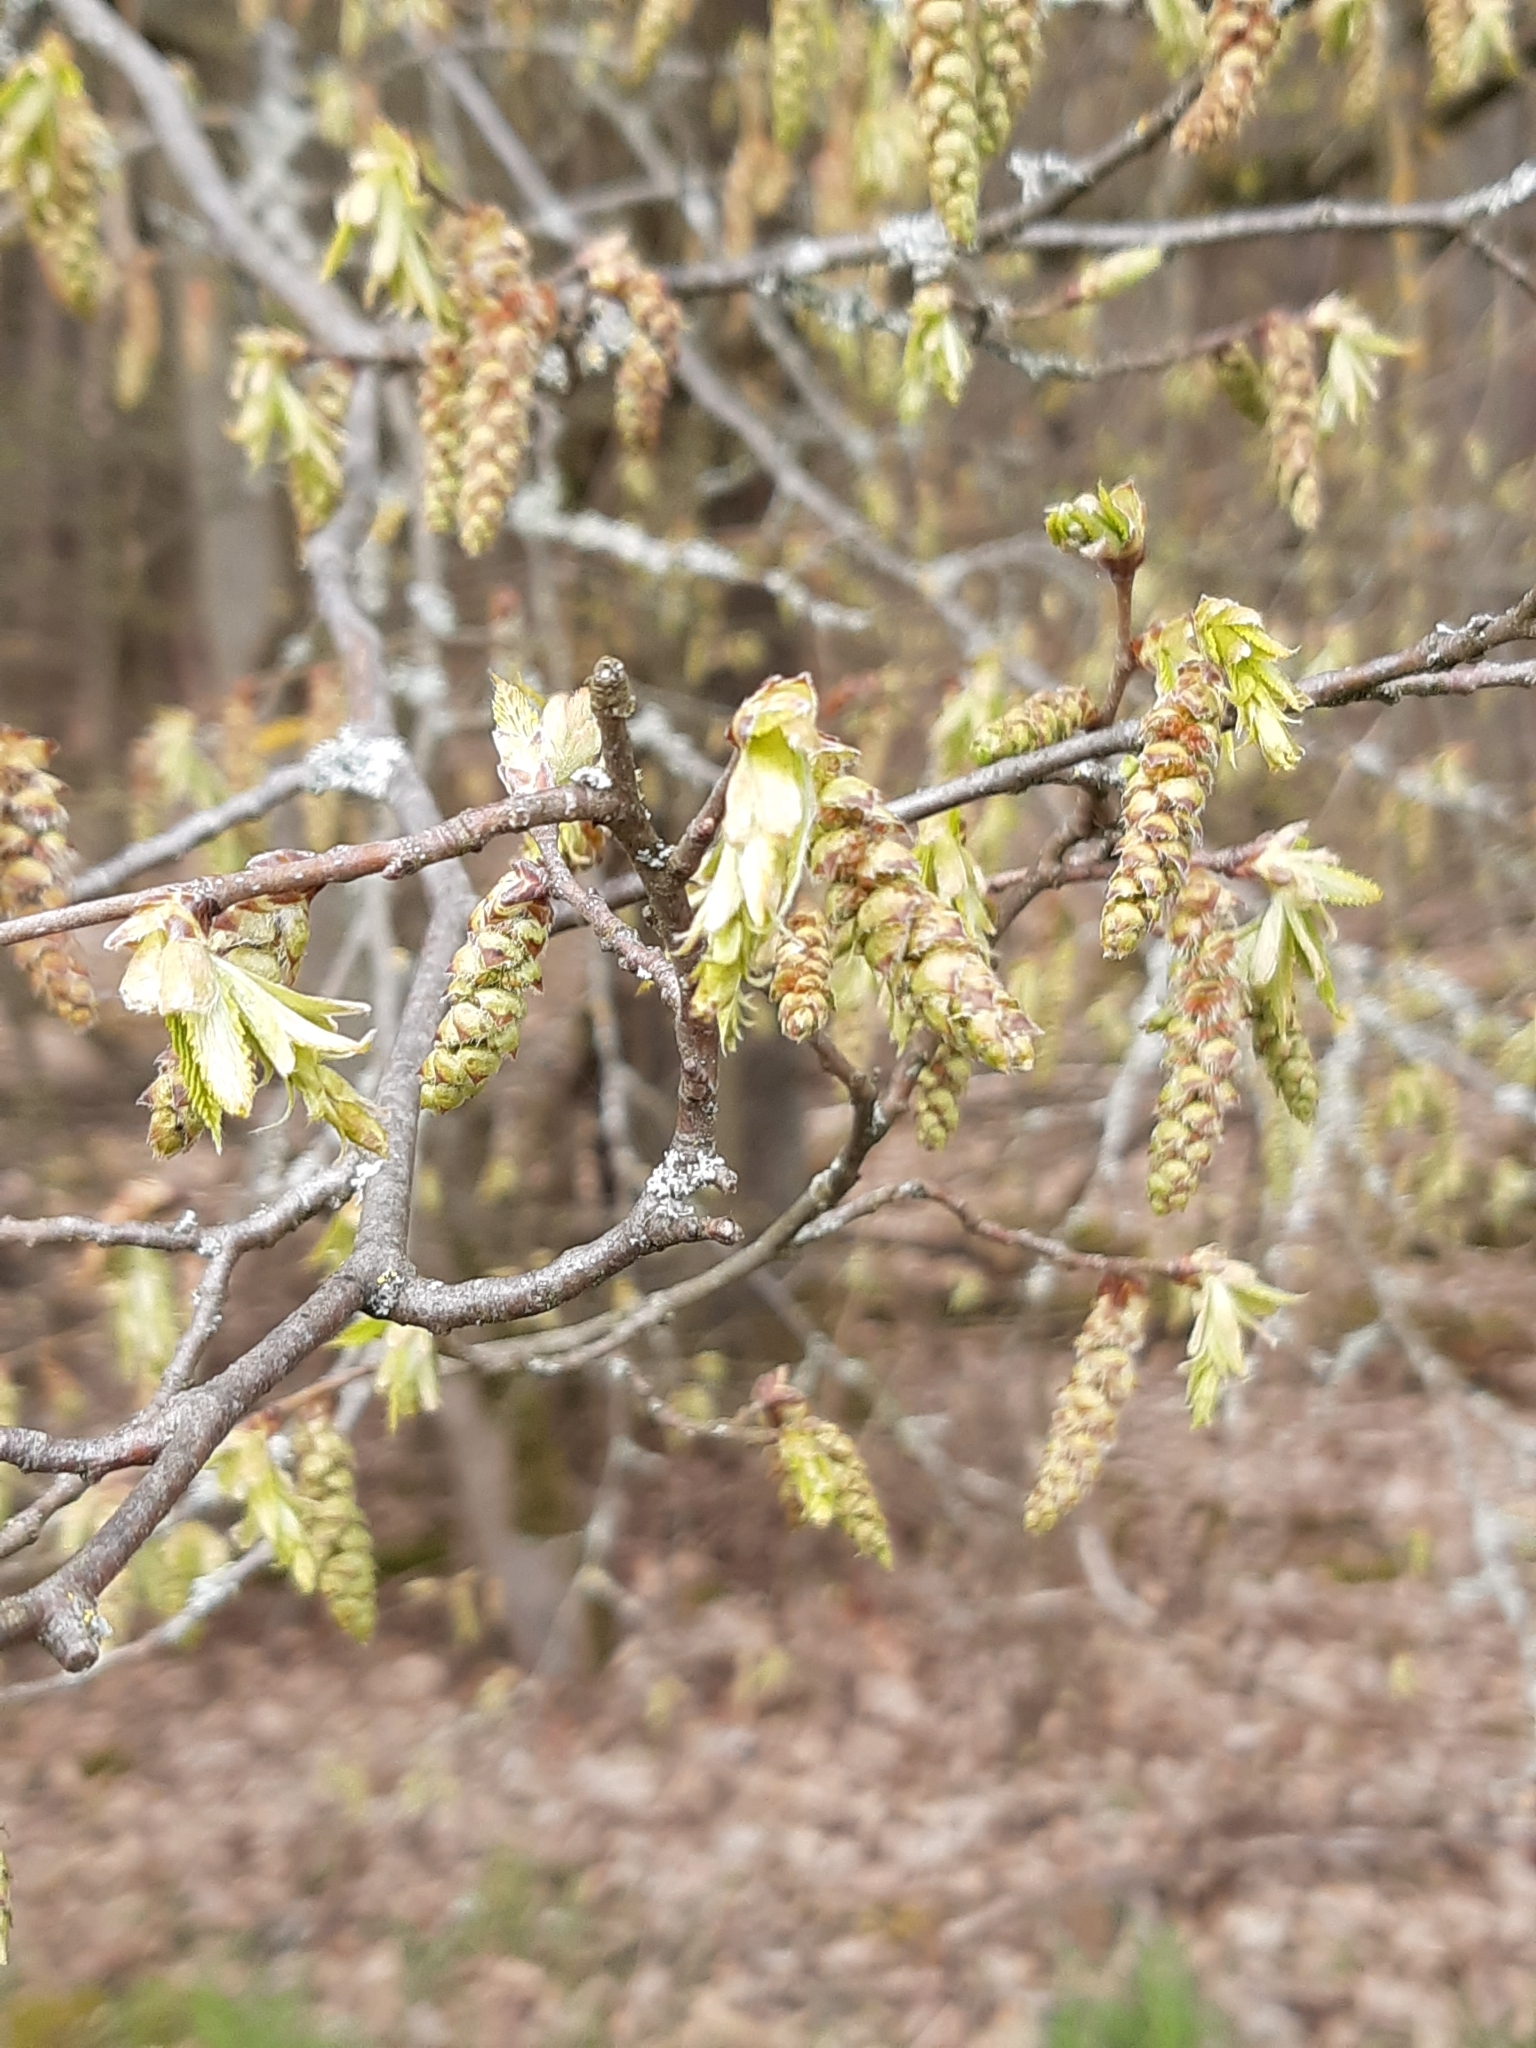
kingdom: Plantae
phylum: Tracheophyta
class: Magnoliopsida
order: Fagales
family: Betulaceae
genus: Carpinus
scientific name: Carpinus betulus
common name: Hornbeam
